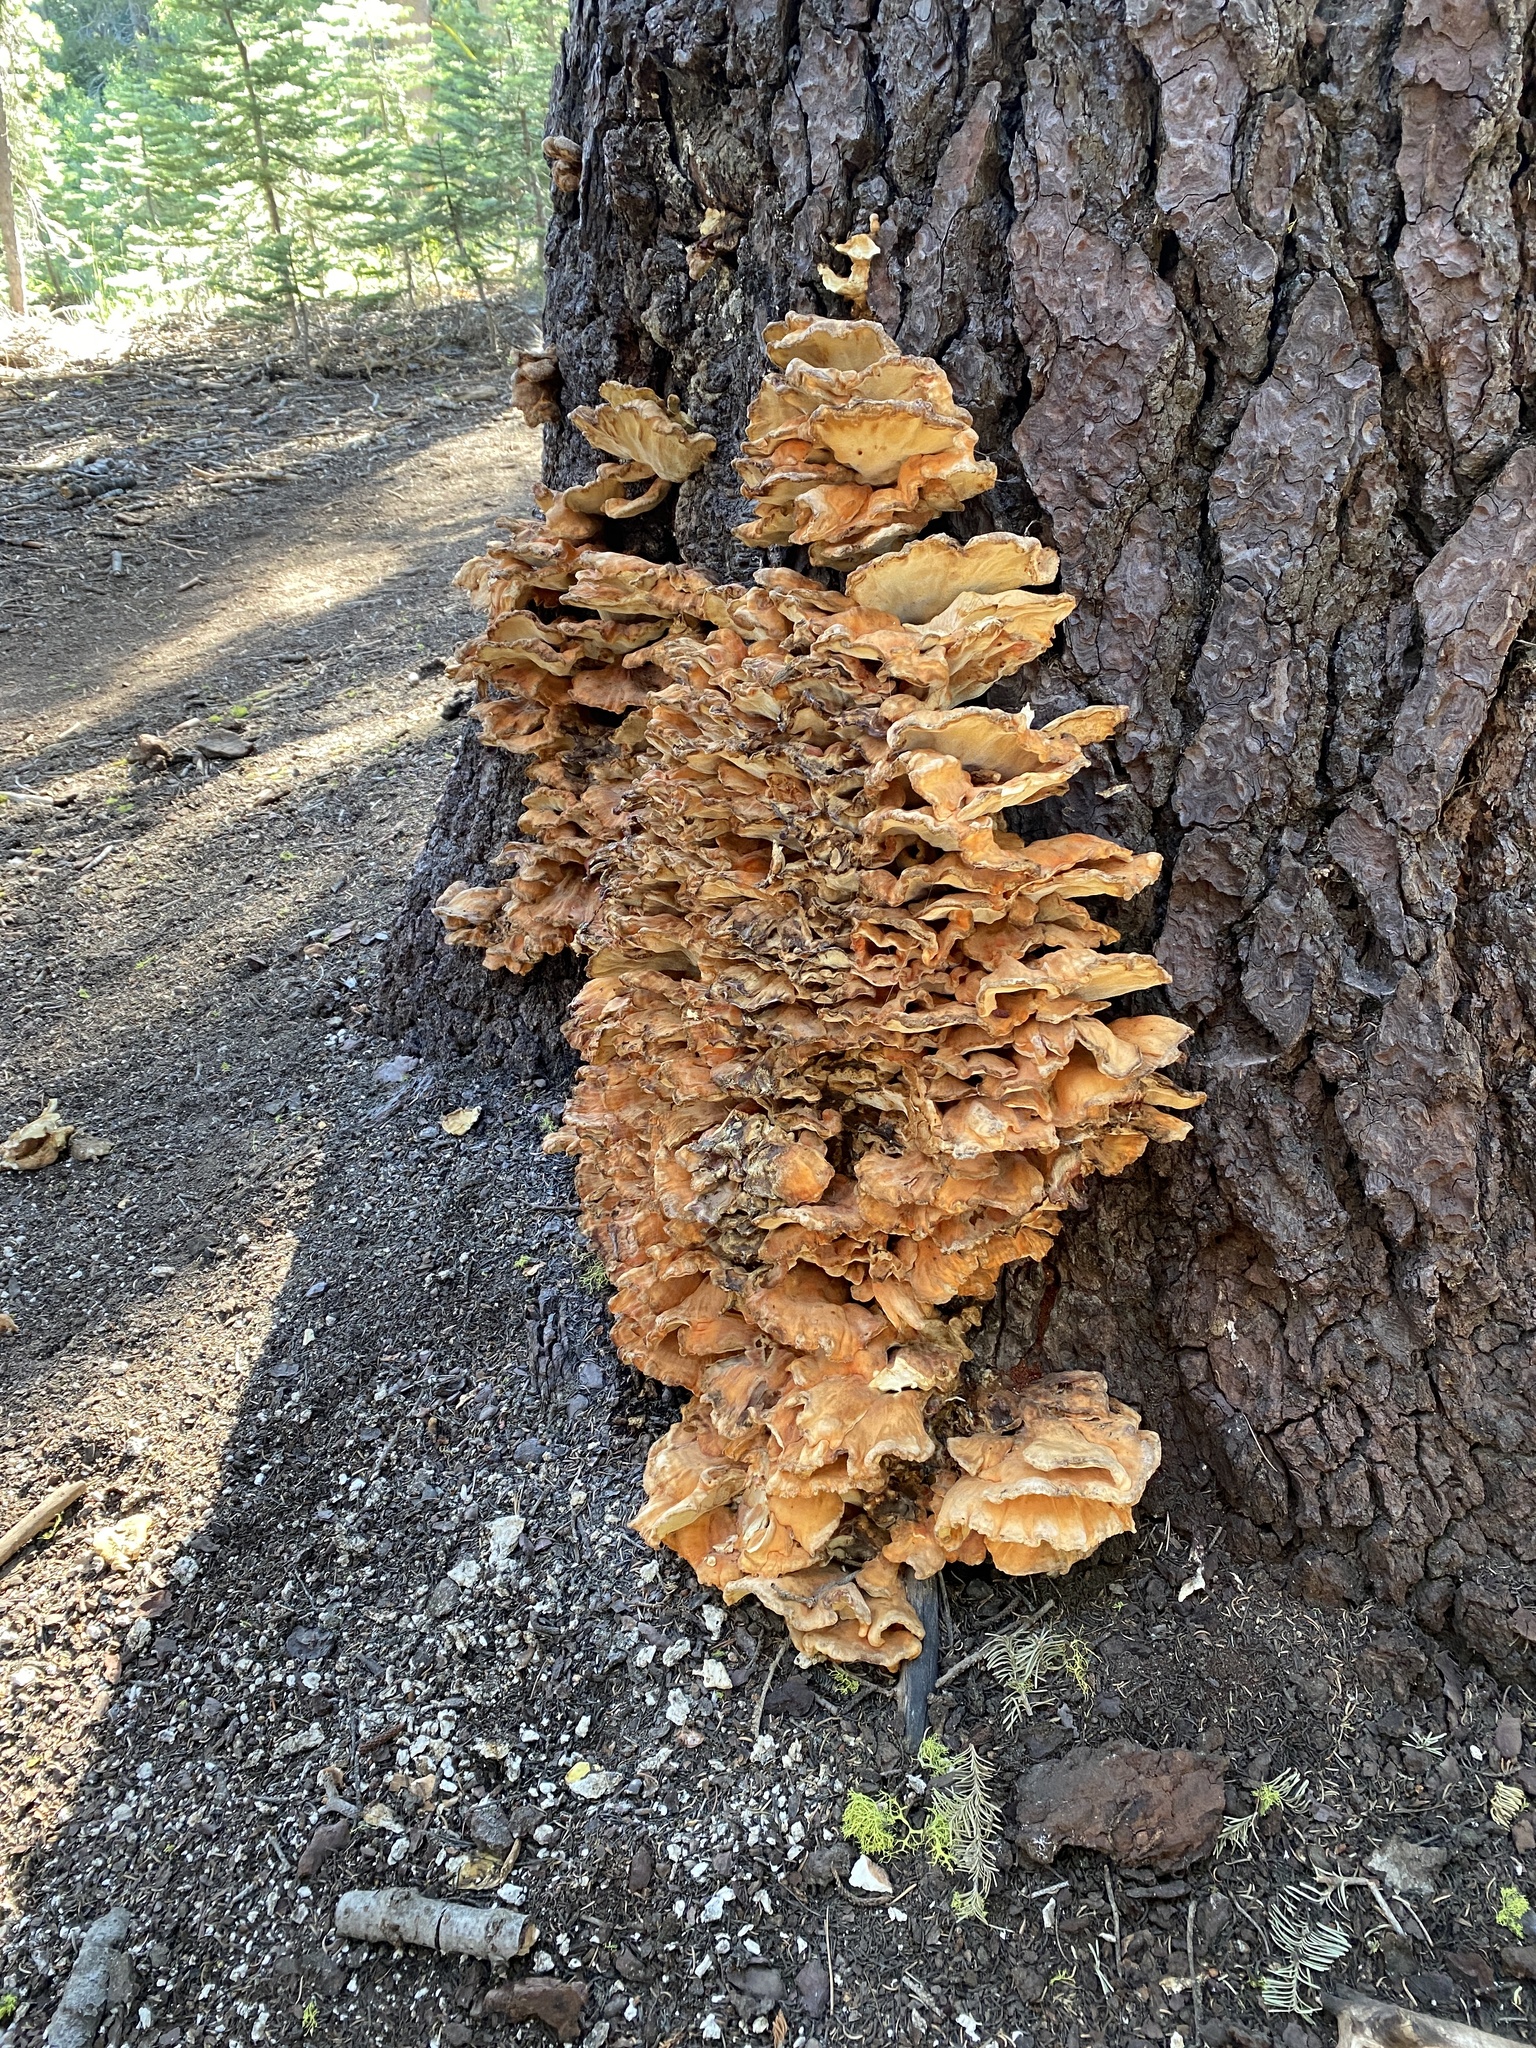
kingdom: Fungi
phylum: Basidiomycota
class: Agaricomycetes
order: Polyporales
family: Laetiporaceae
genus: Laetiporus
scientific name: Laetiporus conifericola
